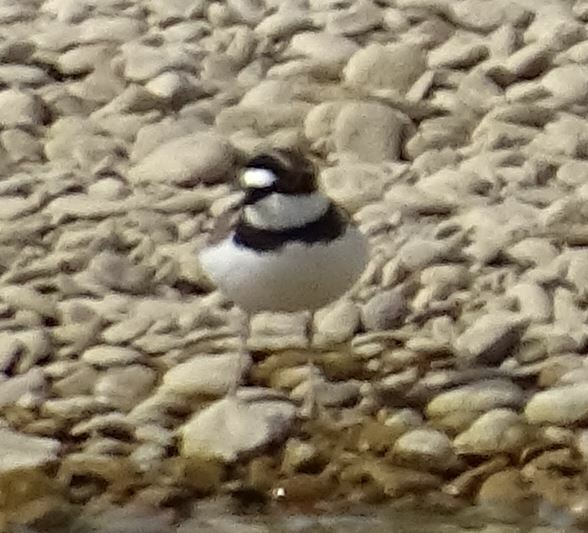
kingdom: Animalia
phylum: Chordata
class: Aves
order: Charadriiformes
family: Charadriidae
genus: Charadrius
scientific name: Charadrius dubius
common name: Little ringed plover
